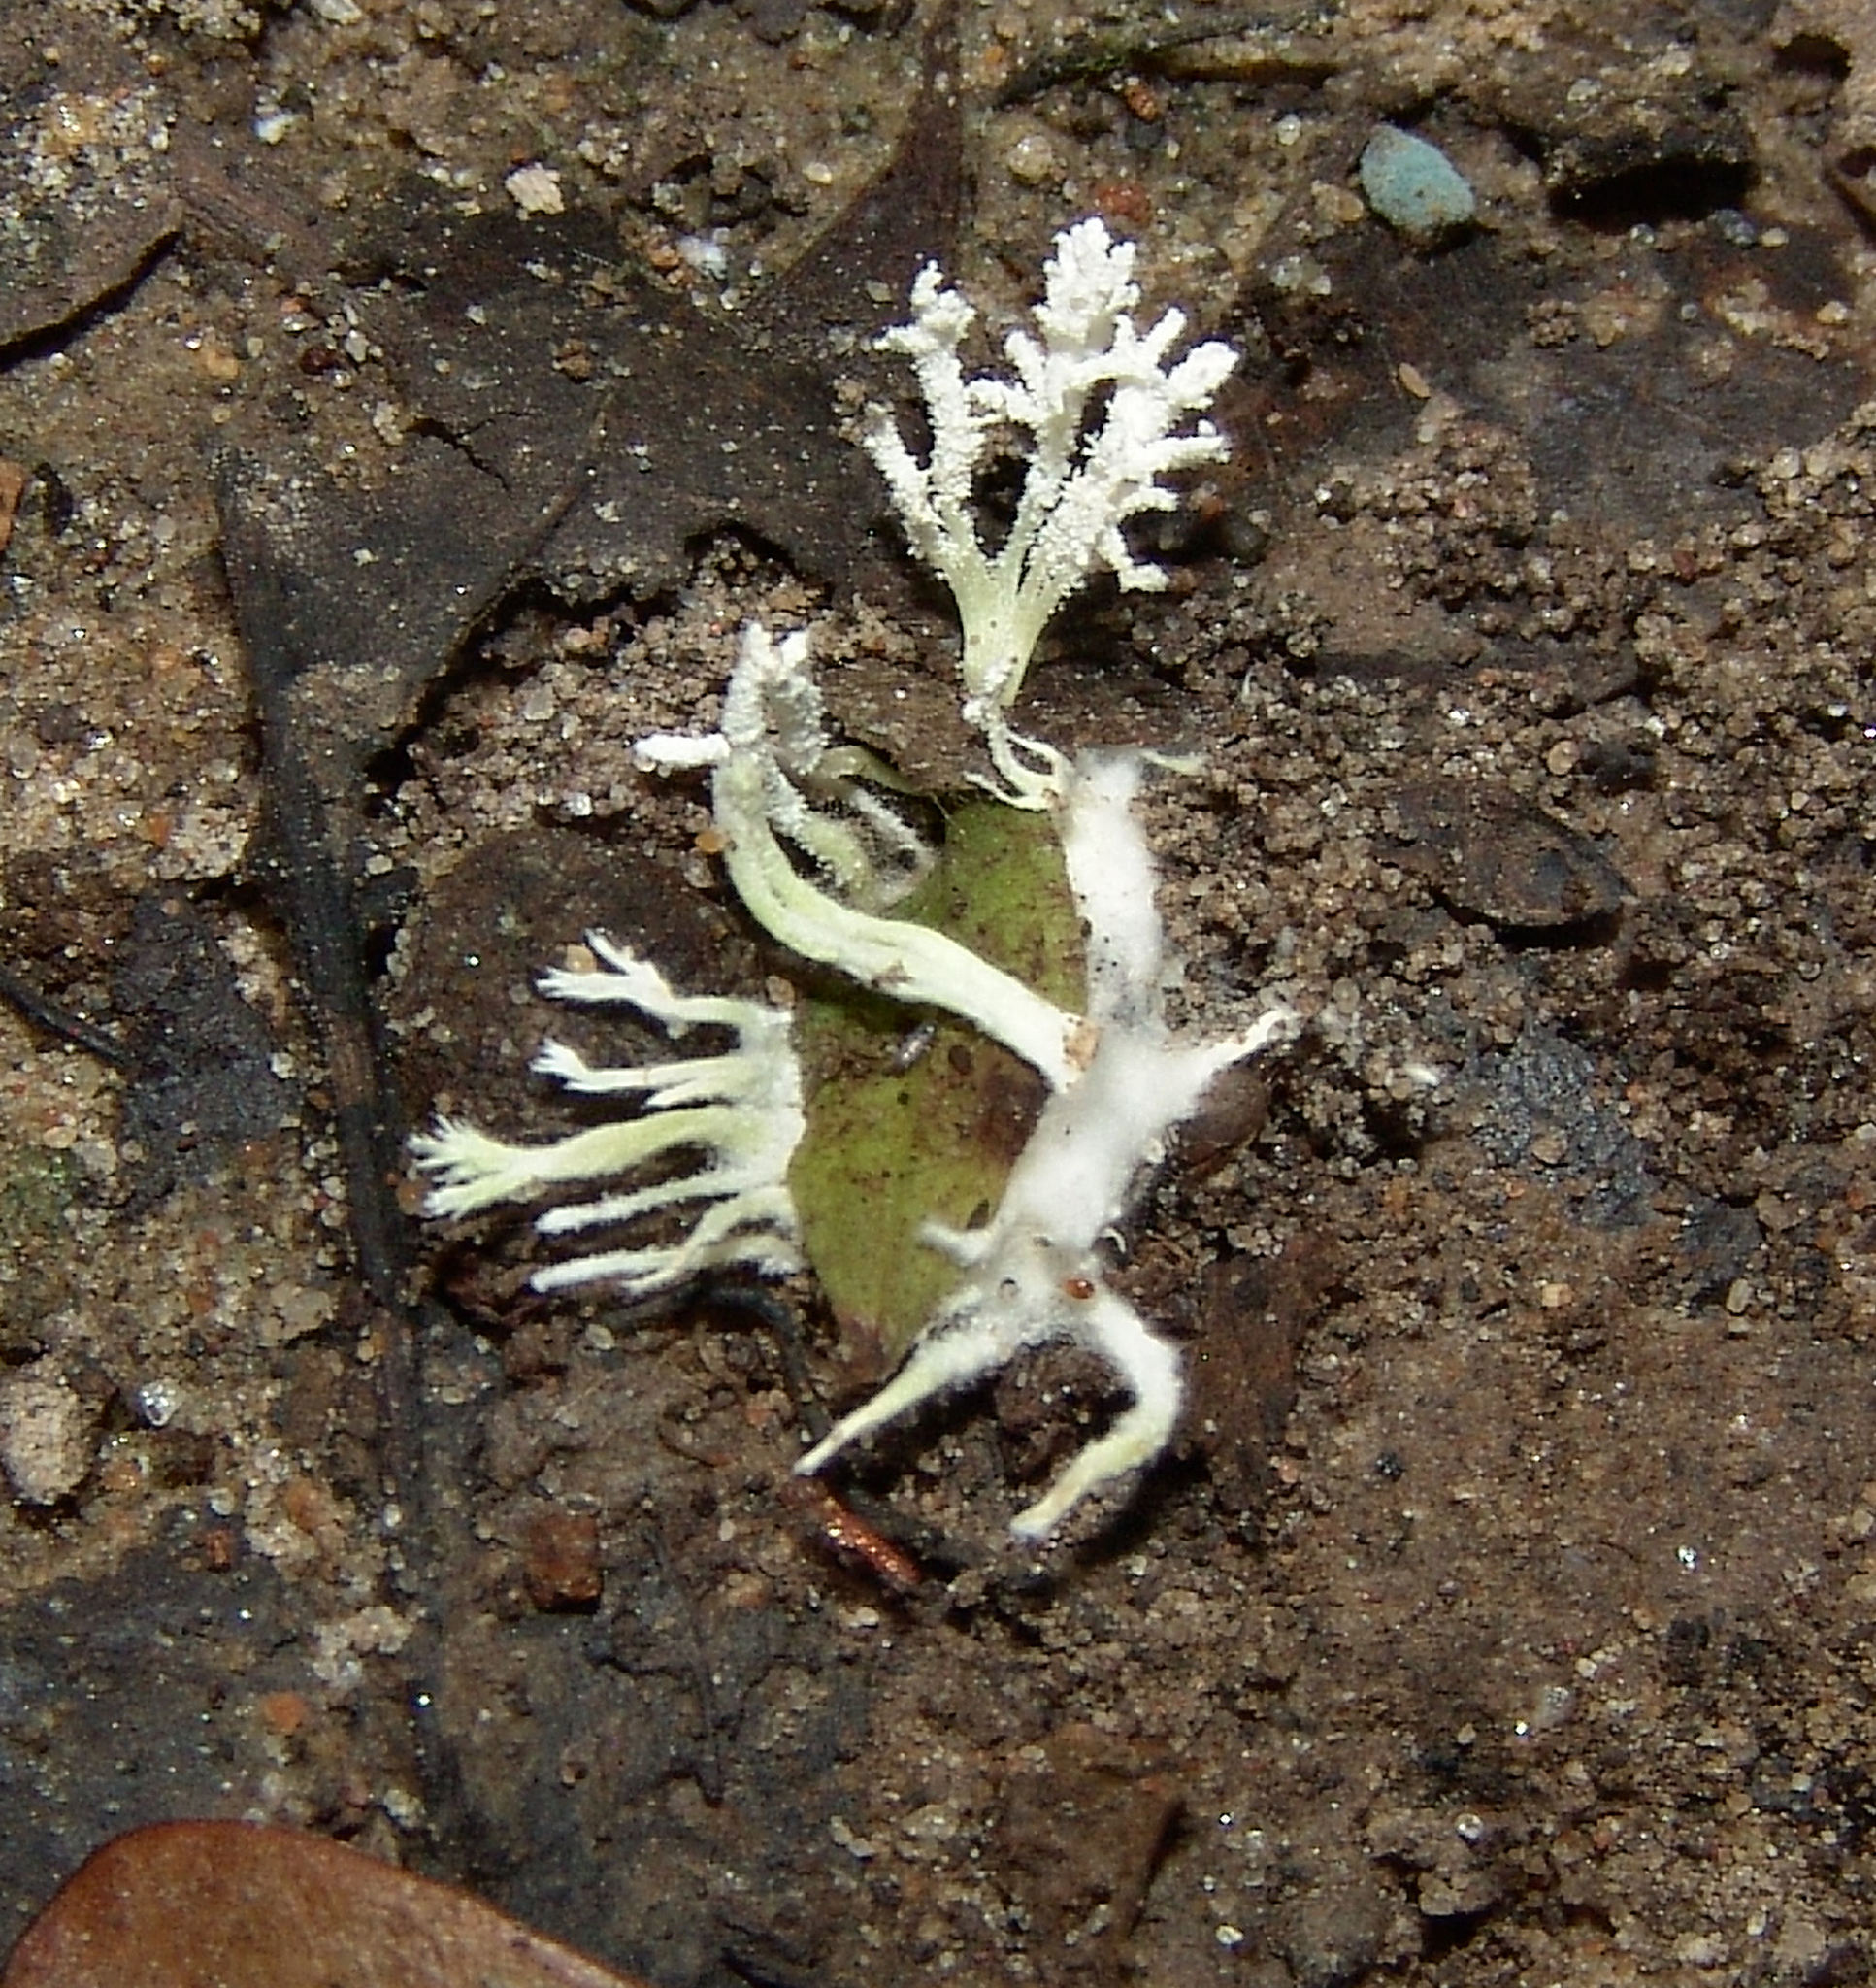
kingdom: Fungi
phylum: Ascomycota
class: Sordariomycetes
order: Hypocreales
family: Cordycipitaceae
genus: Cordyceps
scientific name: Cordyceps tenuipes
